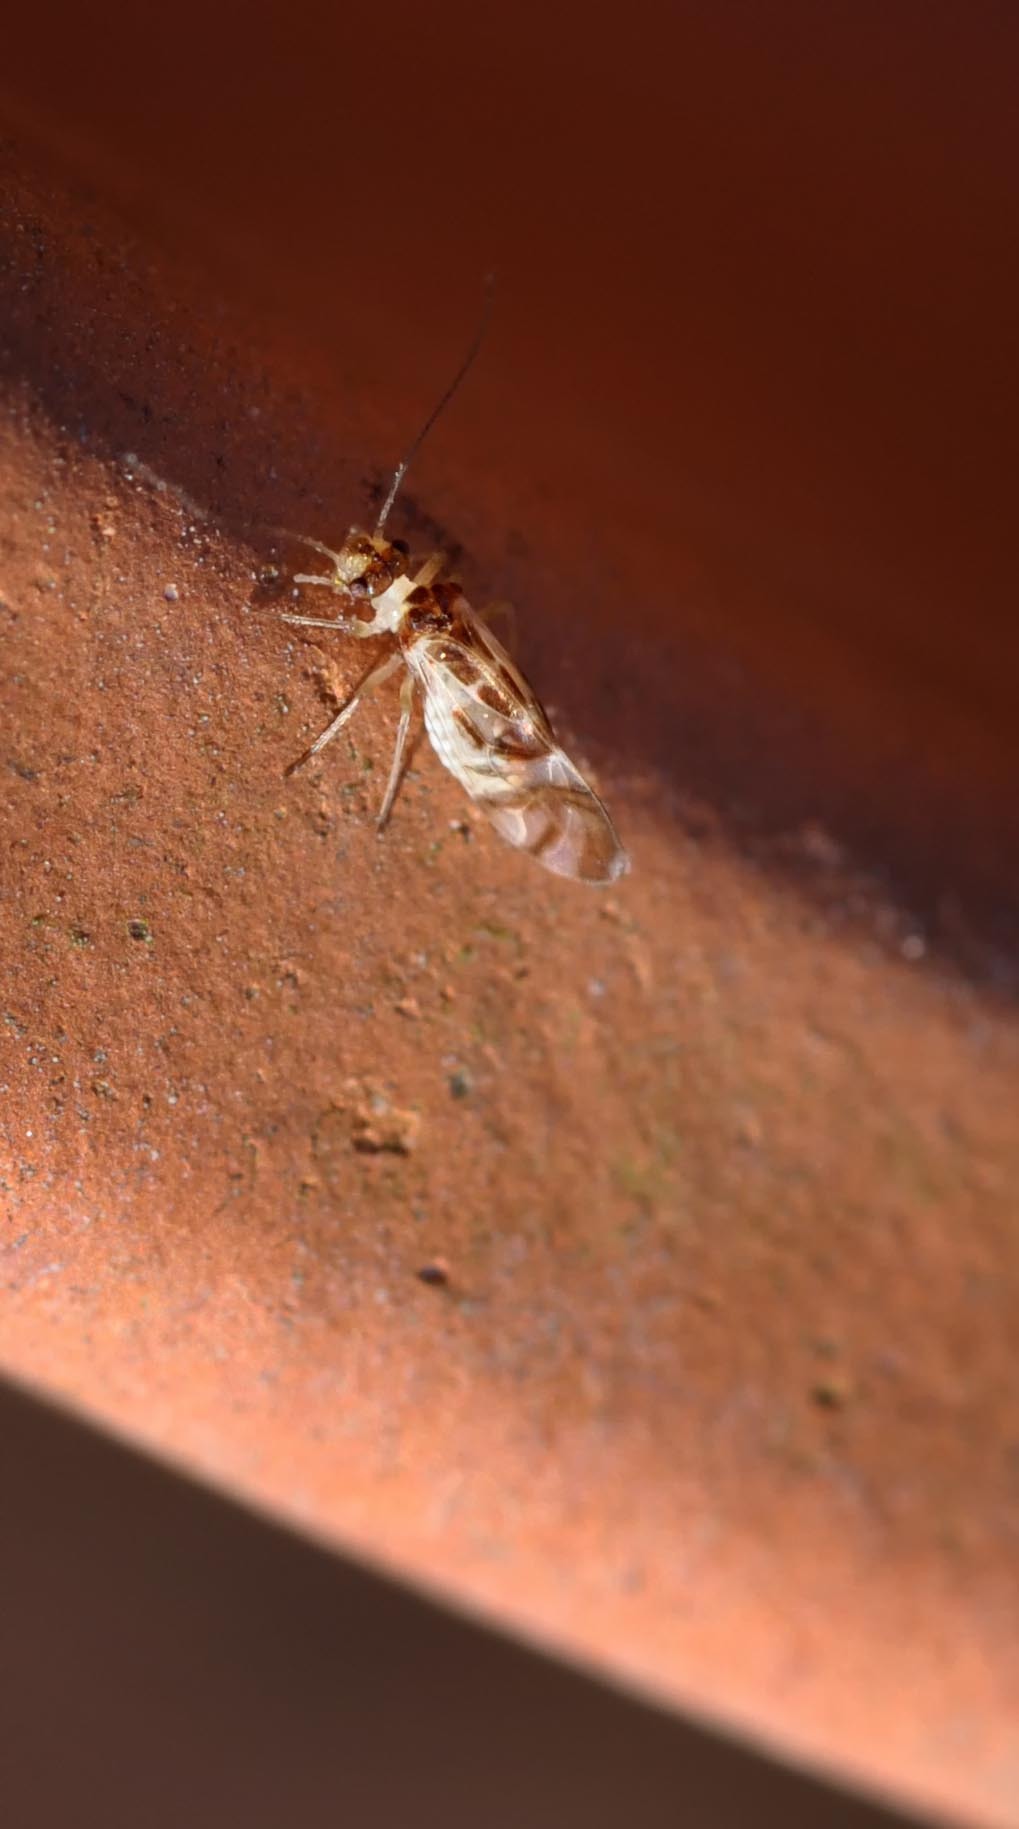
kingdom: Animalia
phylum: Arthropoda
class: Insecta
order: Psocodea
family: Stenopsocidae
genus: Graphopsocus
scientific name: Graphopsocus cruciatus
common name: Lizard bark louse
